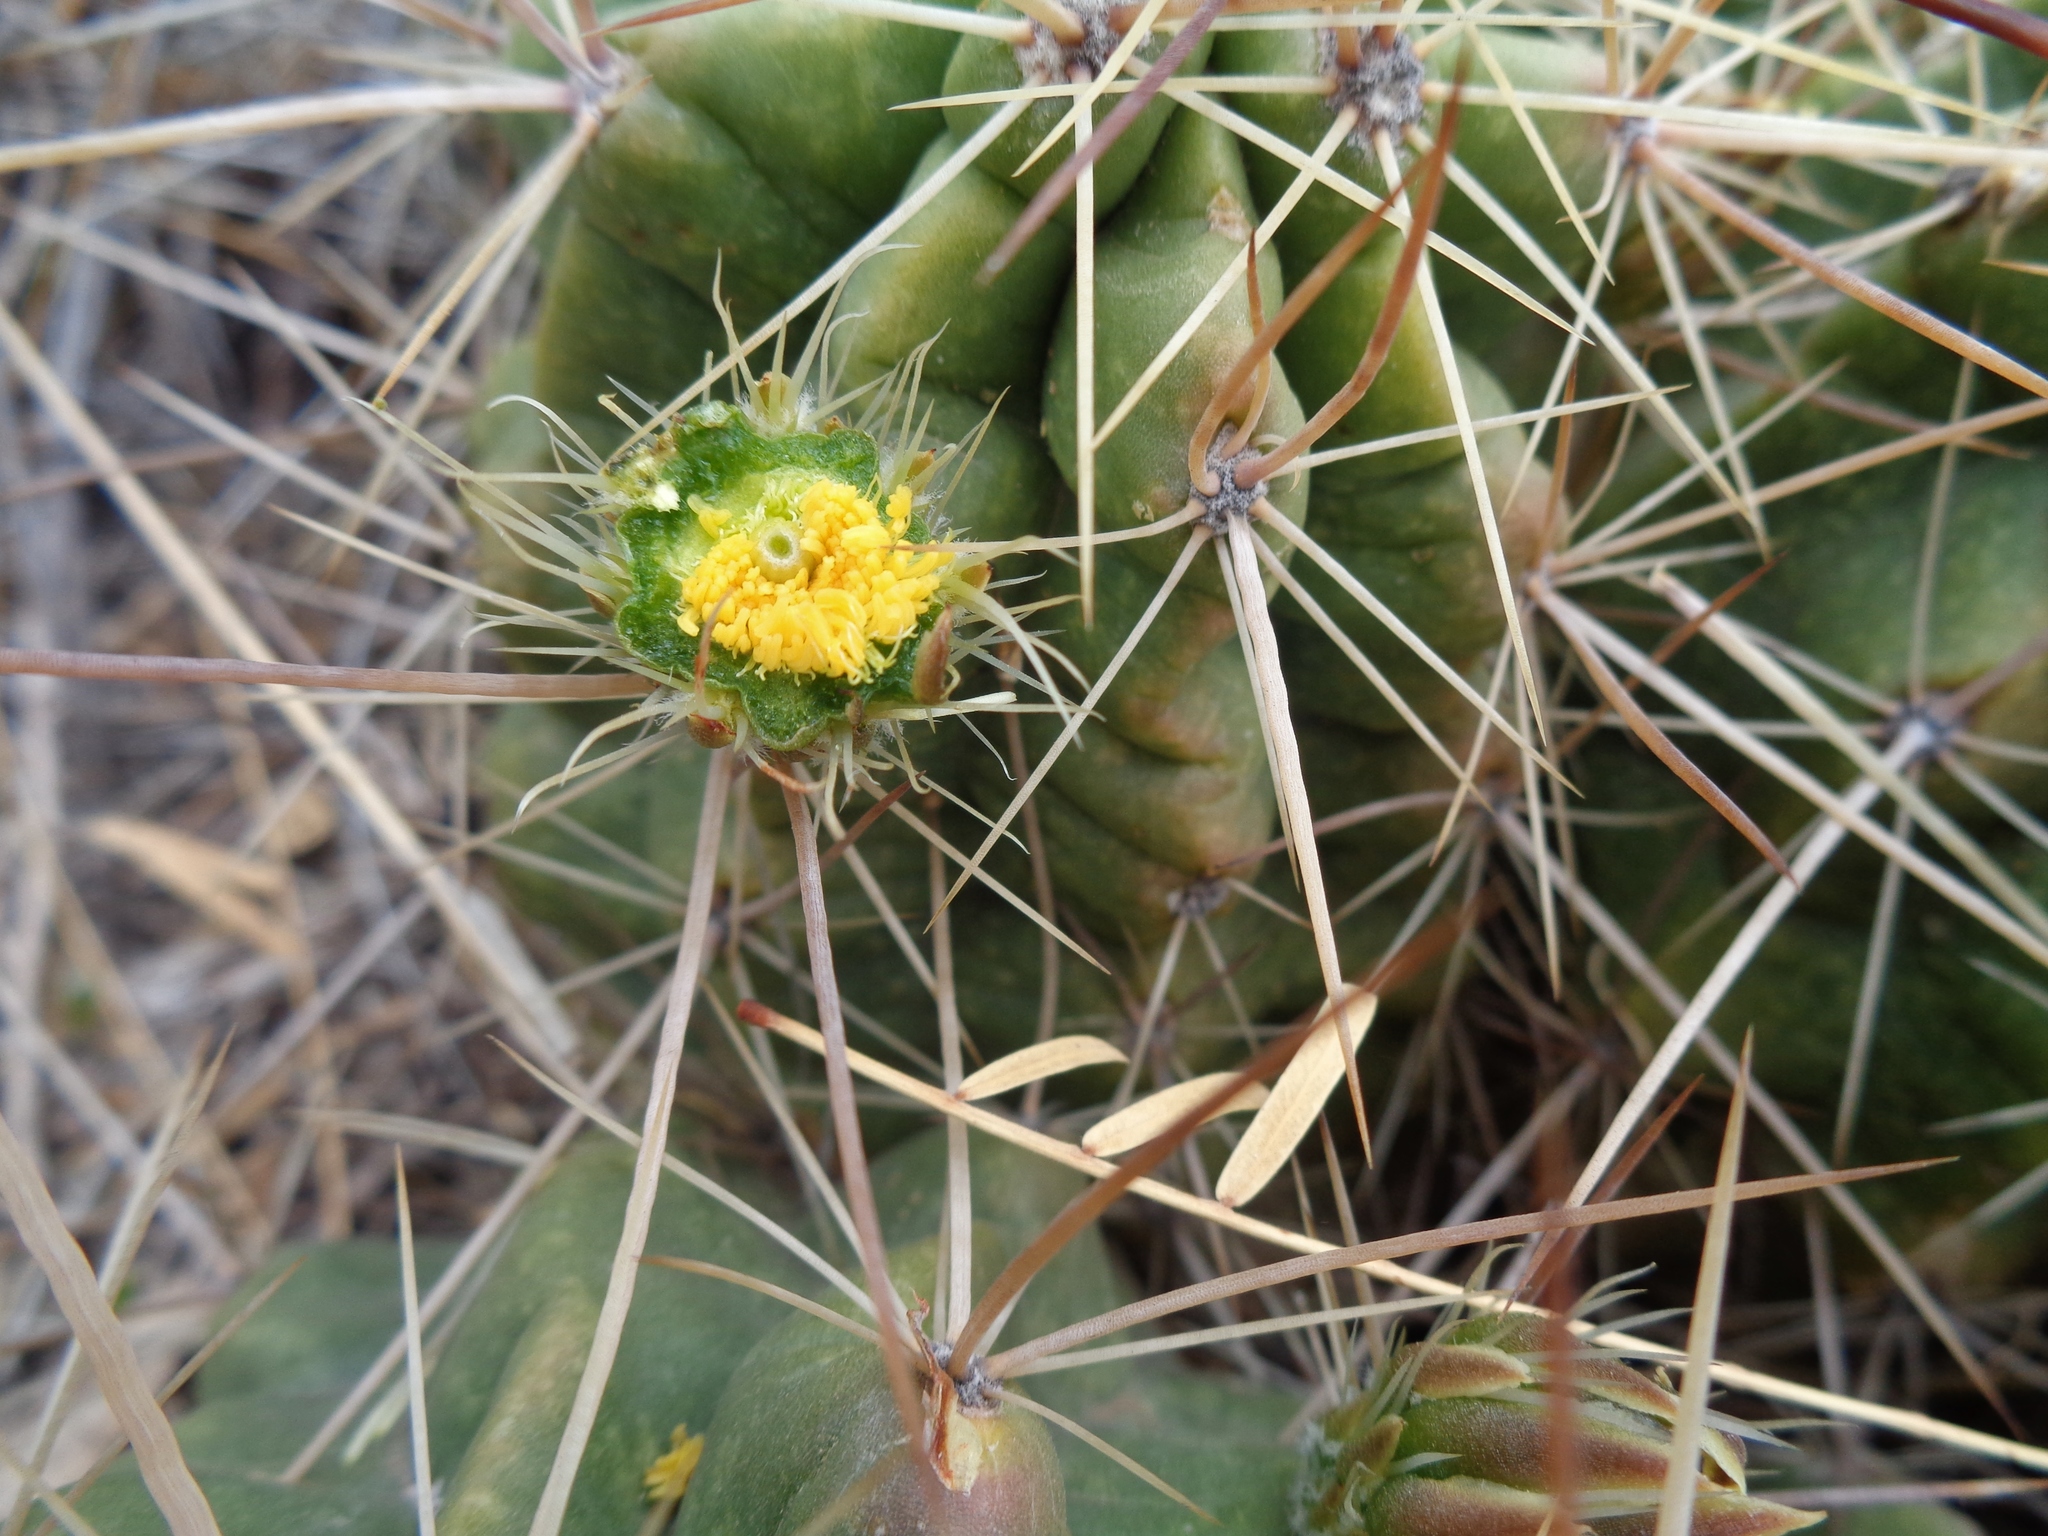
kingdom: Plantae
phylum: Tracheophyta
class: Magnoliopsida
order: Caryophyllales
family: Cactaceae
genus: Echinocereus
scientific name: Echinocereus enneacanthus
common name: Pitaya
